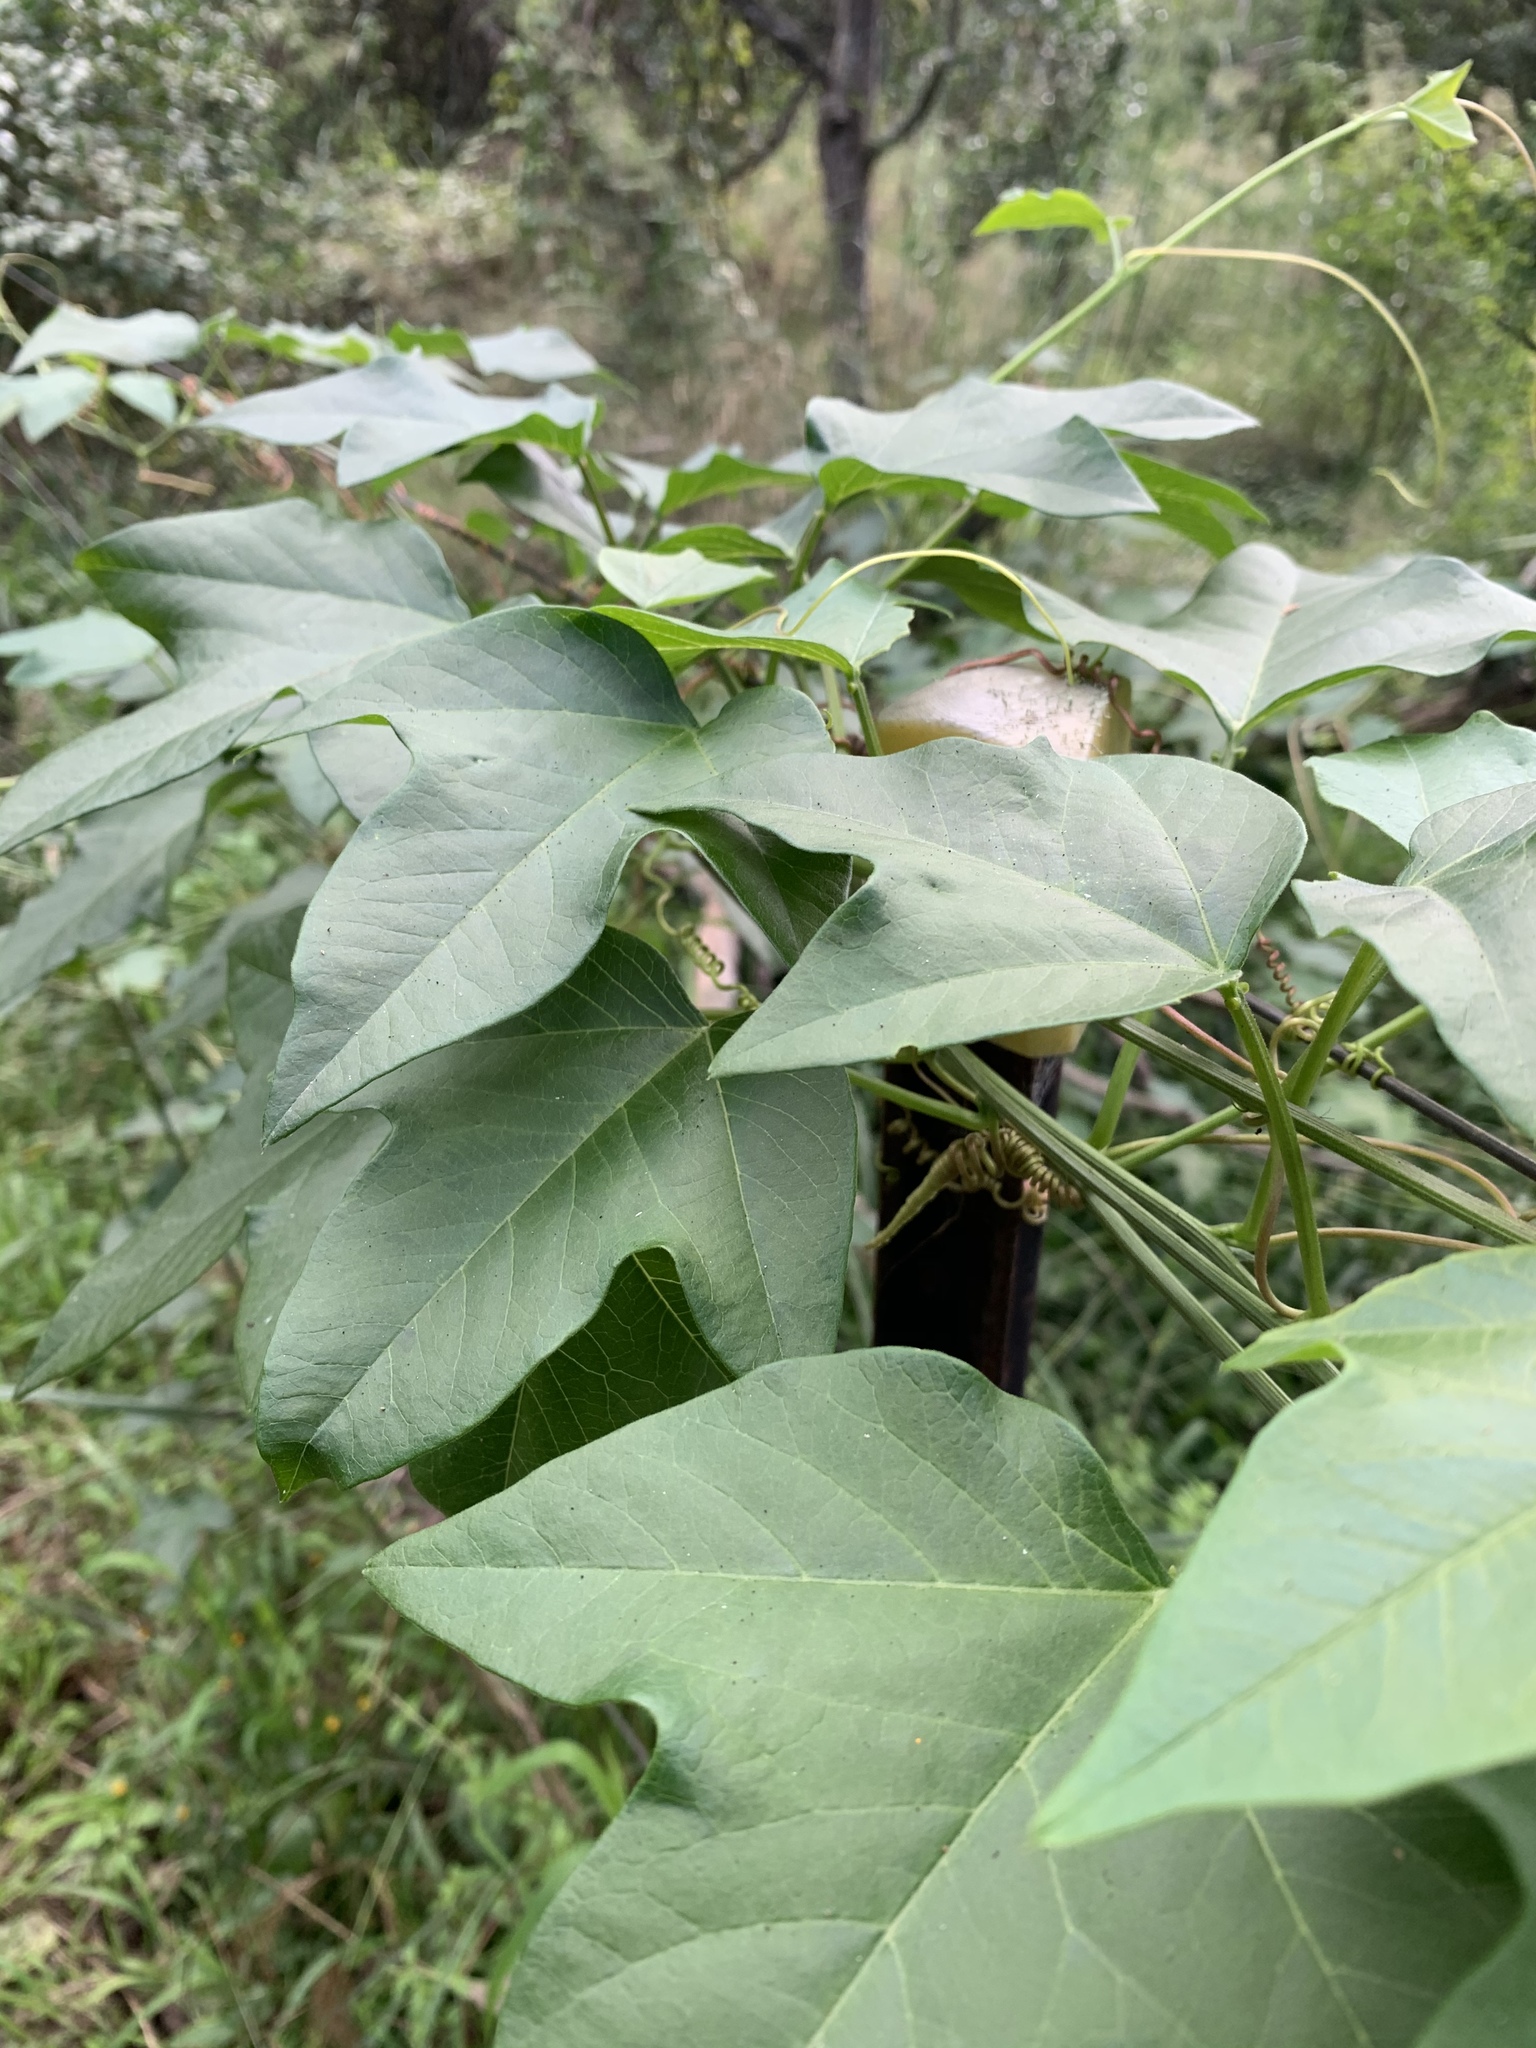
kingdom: Plantae
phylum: Tracheophyta
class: Magnoliopsida
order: Malpighiales
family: Passifloraceae
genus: Passiflora
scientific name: Passiflora herbertiana
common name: Yellow passionflower
